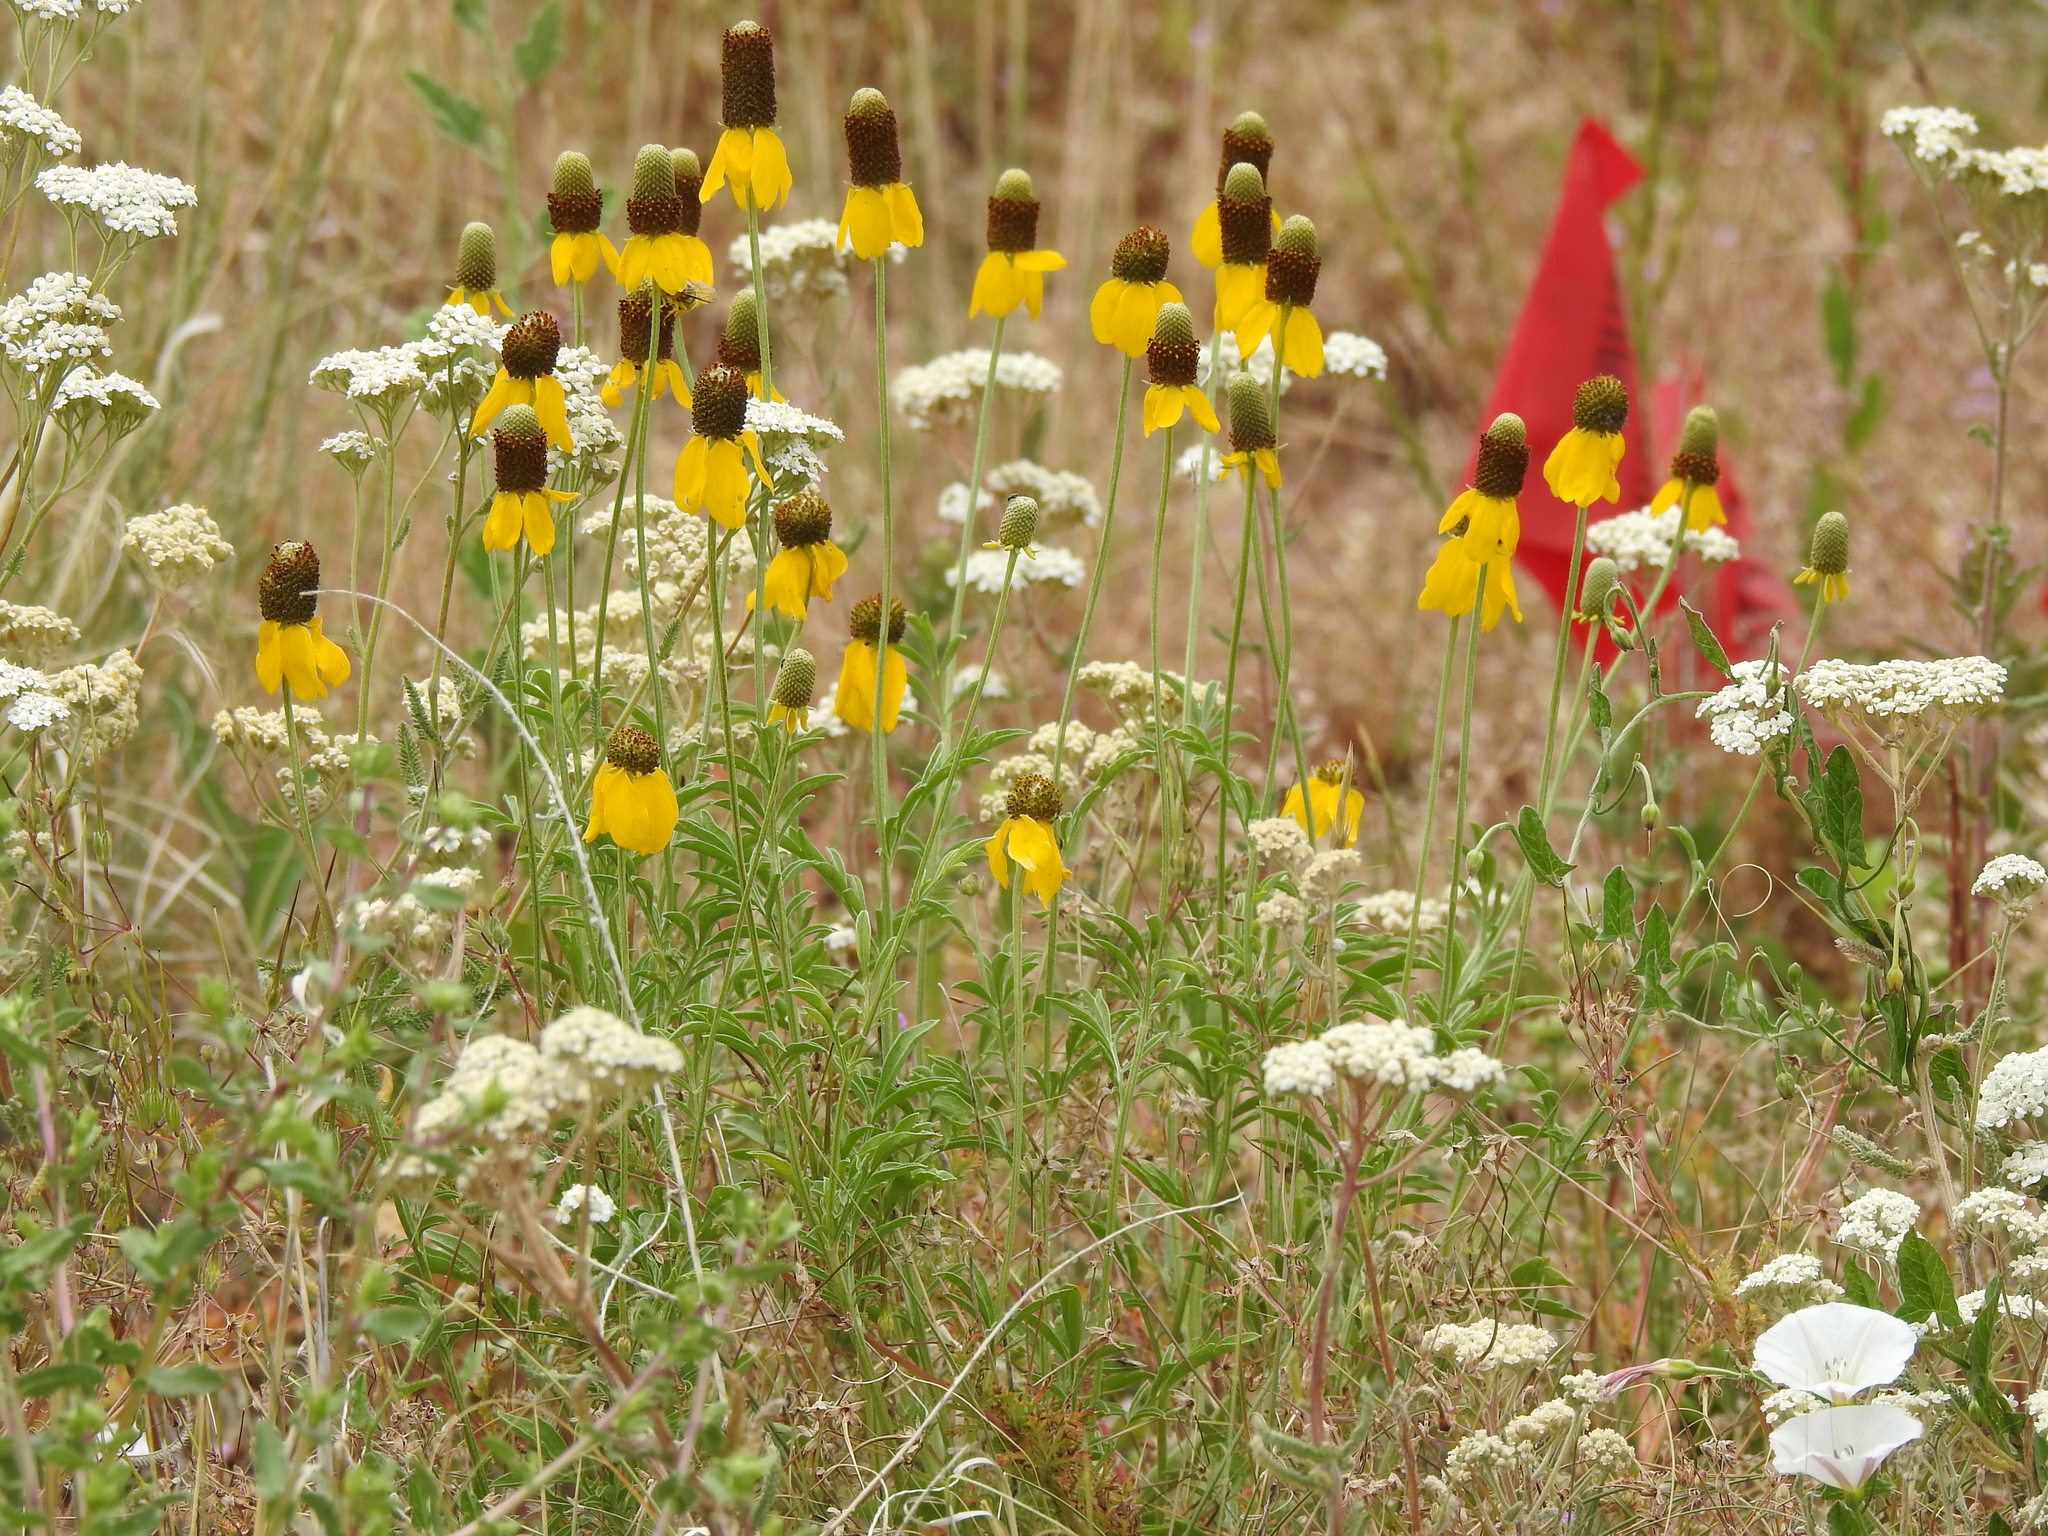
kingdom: Plantae
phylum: Tracheophyta
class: Magnoliopsida
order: Asterales
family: Asteraceae
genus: Ratibida
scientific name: Ratibida columnifera
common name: Prairie coneflower
